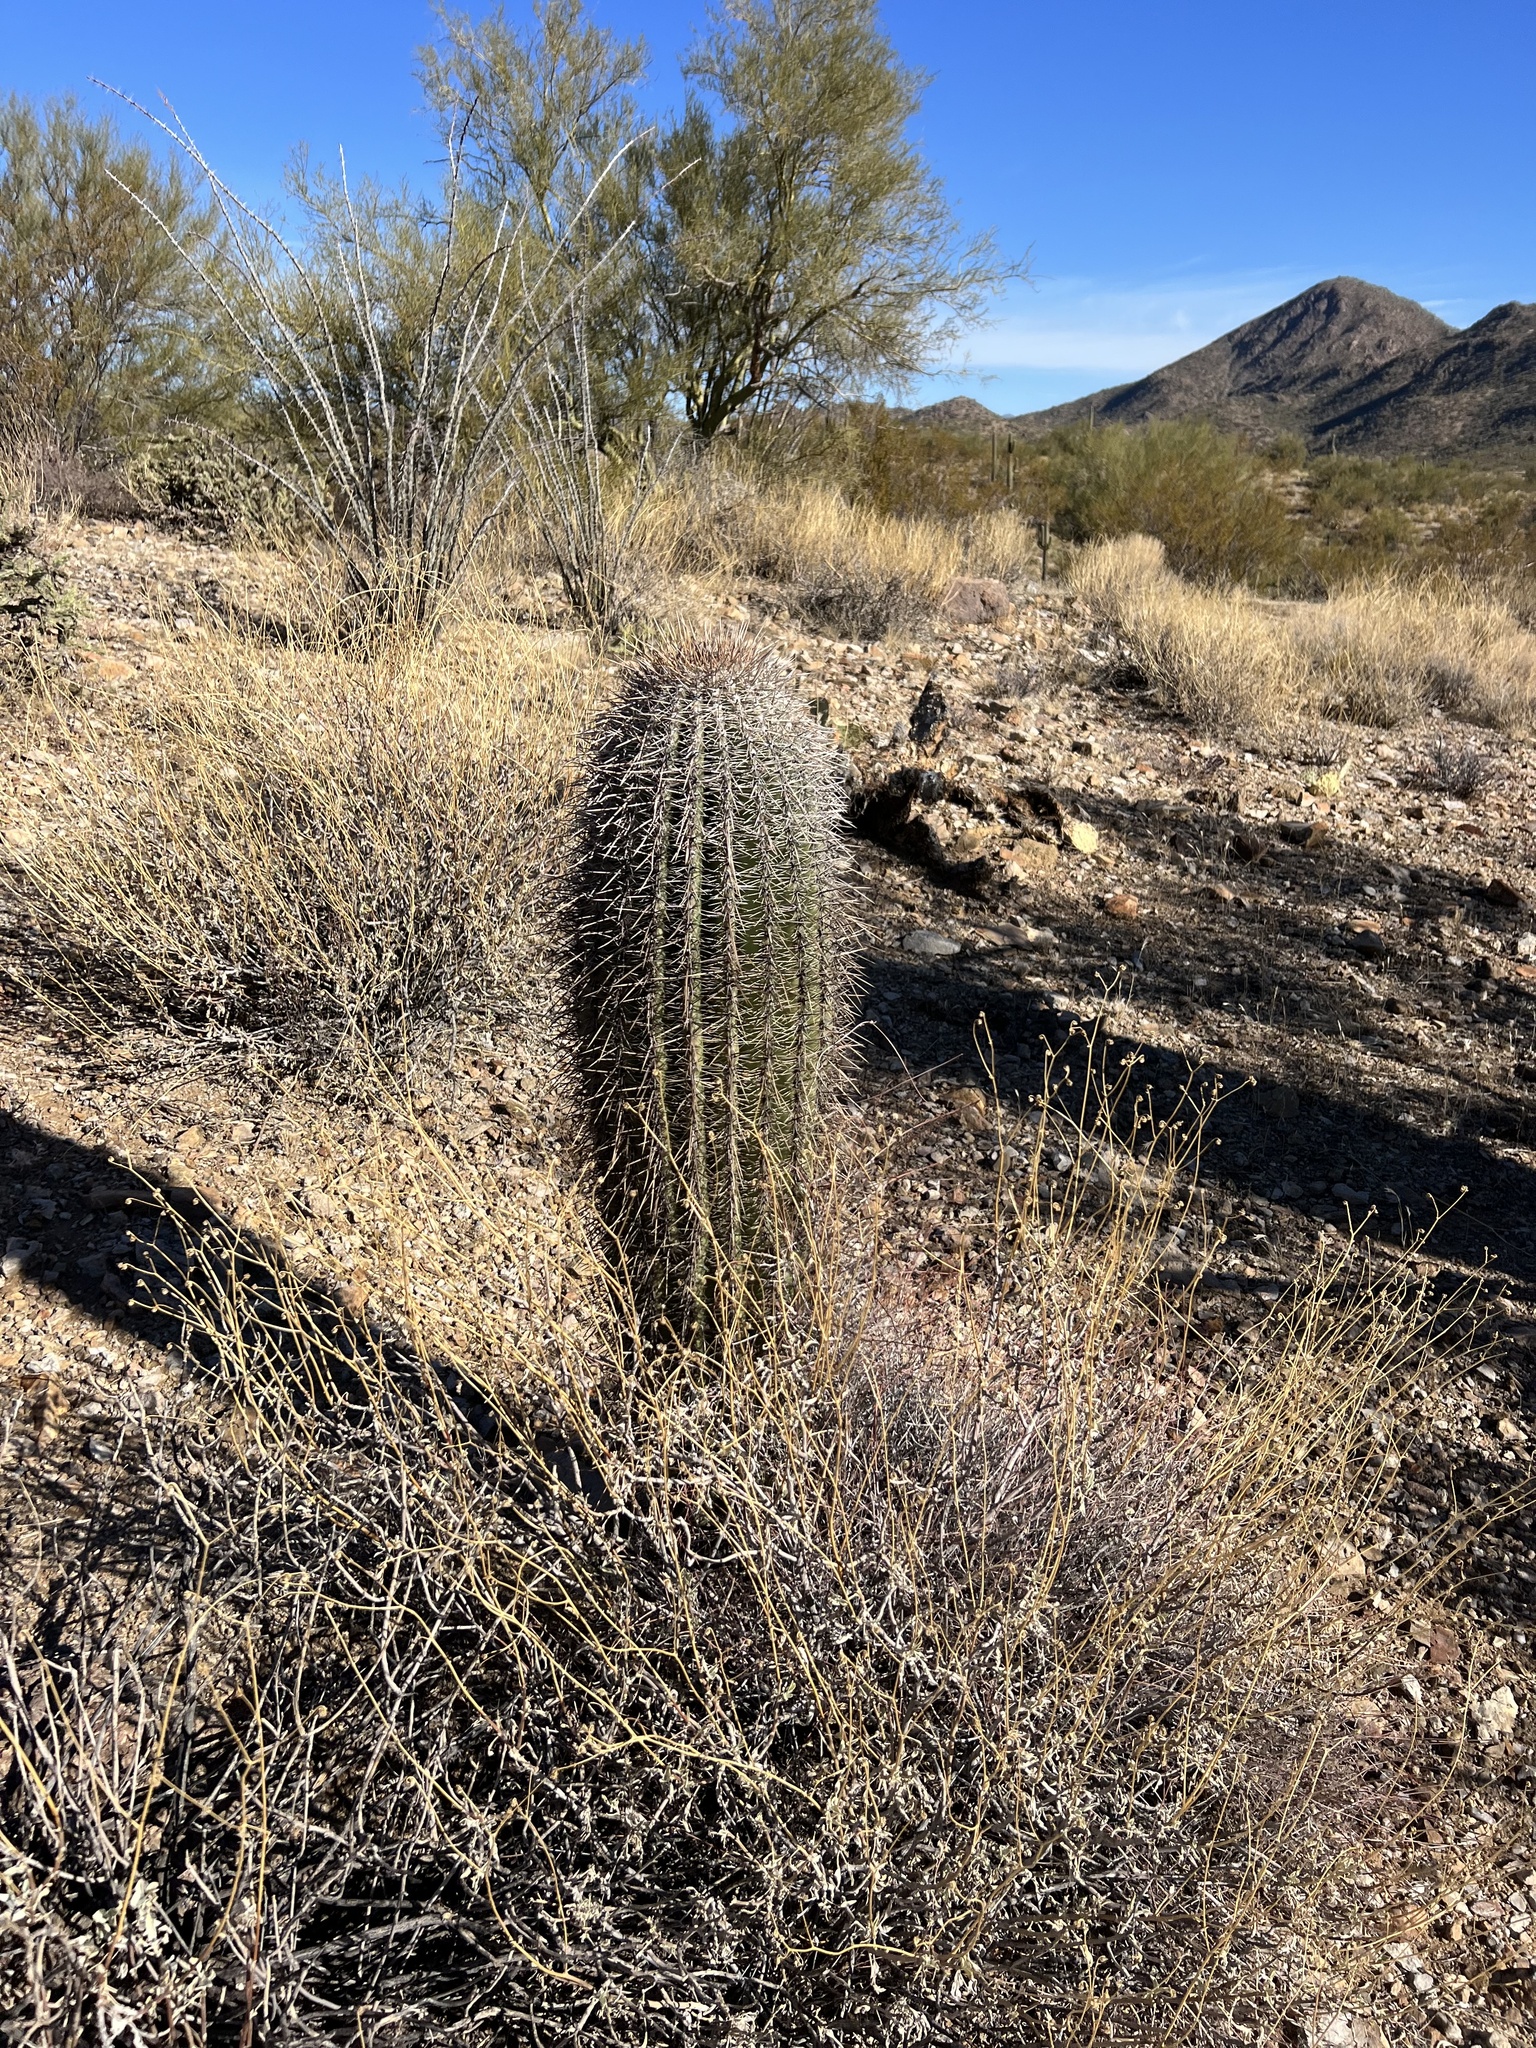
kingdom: Plantae
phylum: Tracheophyta
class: Magnoliopsida
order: Caryophyllales
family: Cactaceae
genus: Carnegiea
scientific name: Carnegiea gigantea
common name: Saguaro
